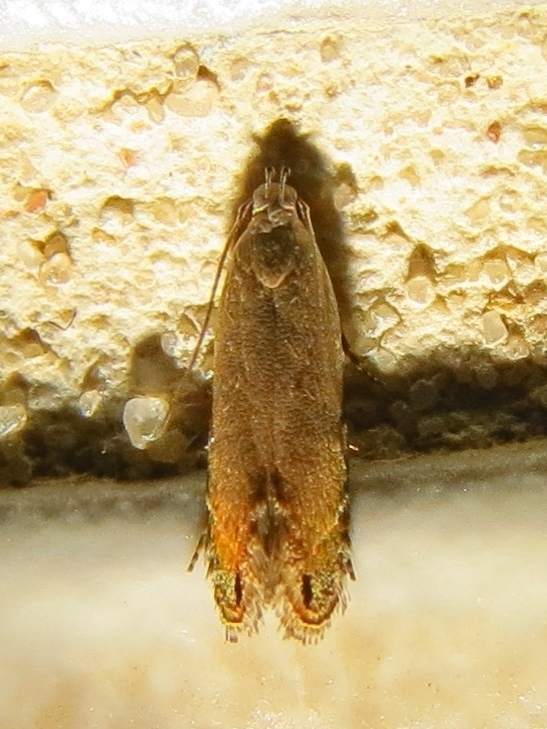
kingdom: Animalia
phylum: Arthropoda
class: Insecta
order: Lepidoptera
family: Gelechiidae
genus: Battaristis
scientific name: Battaristis concinnusella
